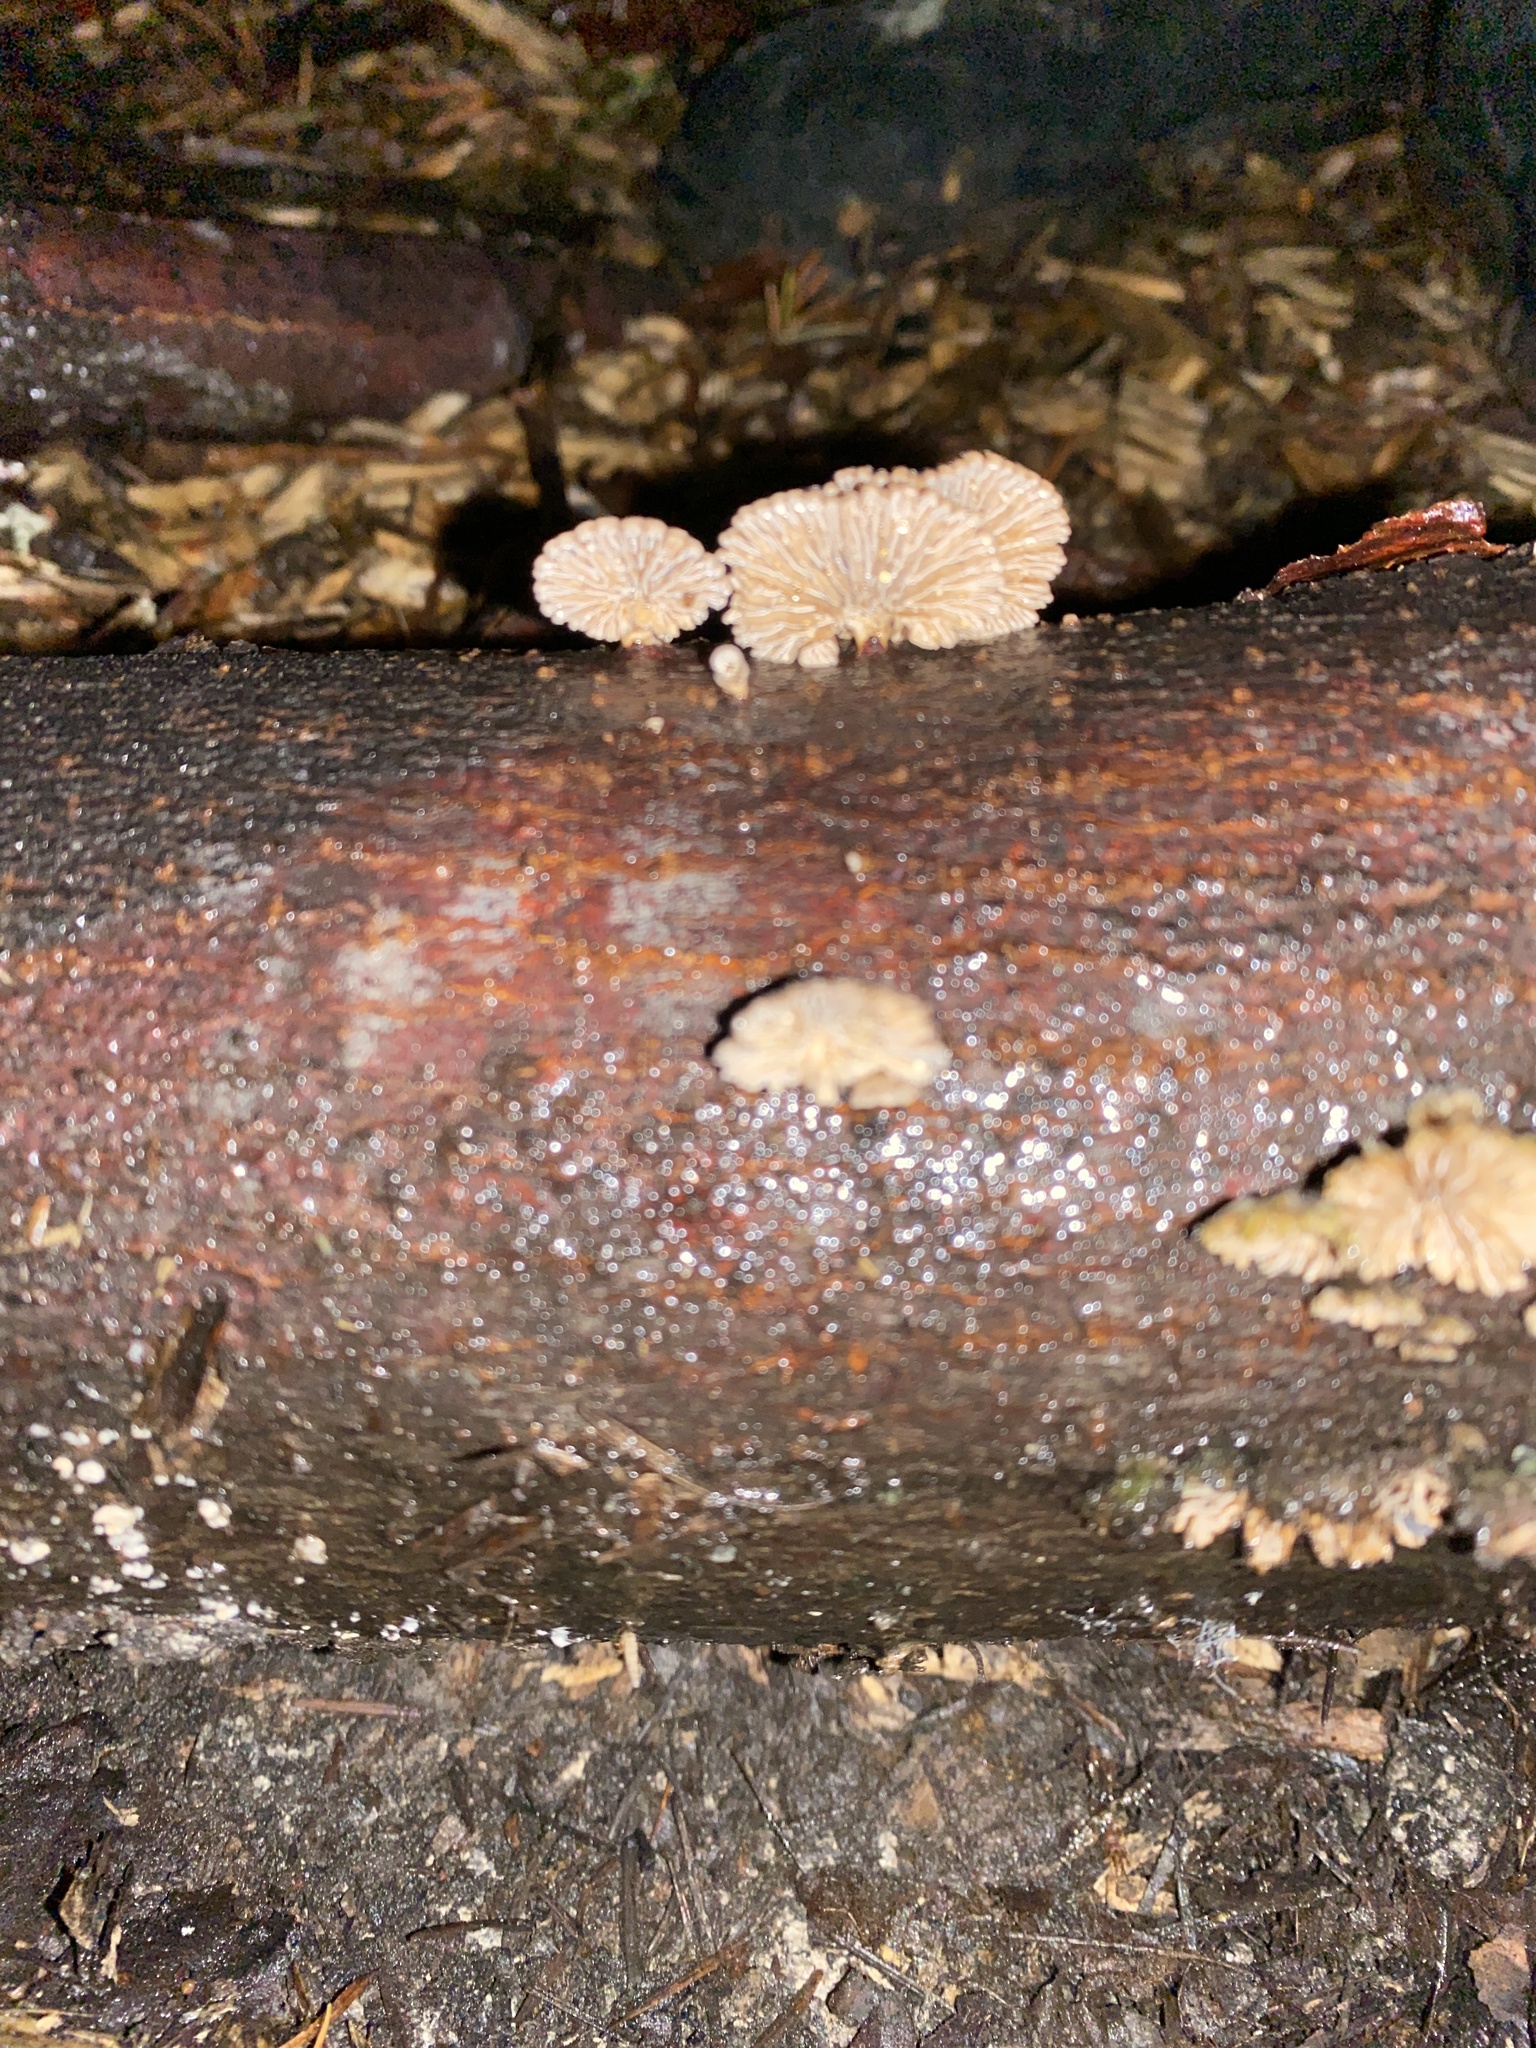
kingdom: Fungi
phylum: Basidiomycota
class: Agaricomycetes
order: Agaricales
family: Schizophyllaceae
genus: Schizophyllum
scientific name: Schizophyllum commune
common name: Common porecrust
